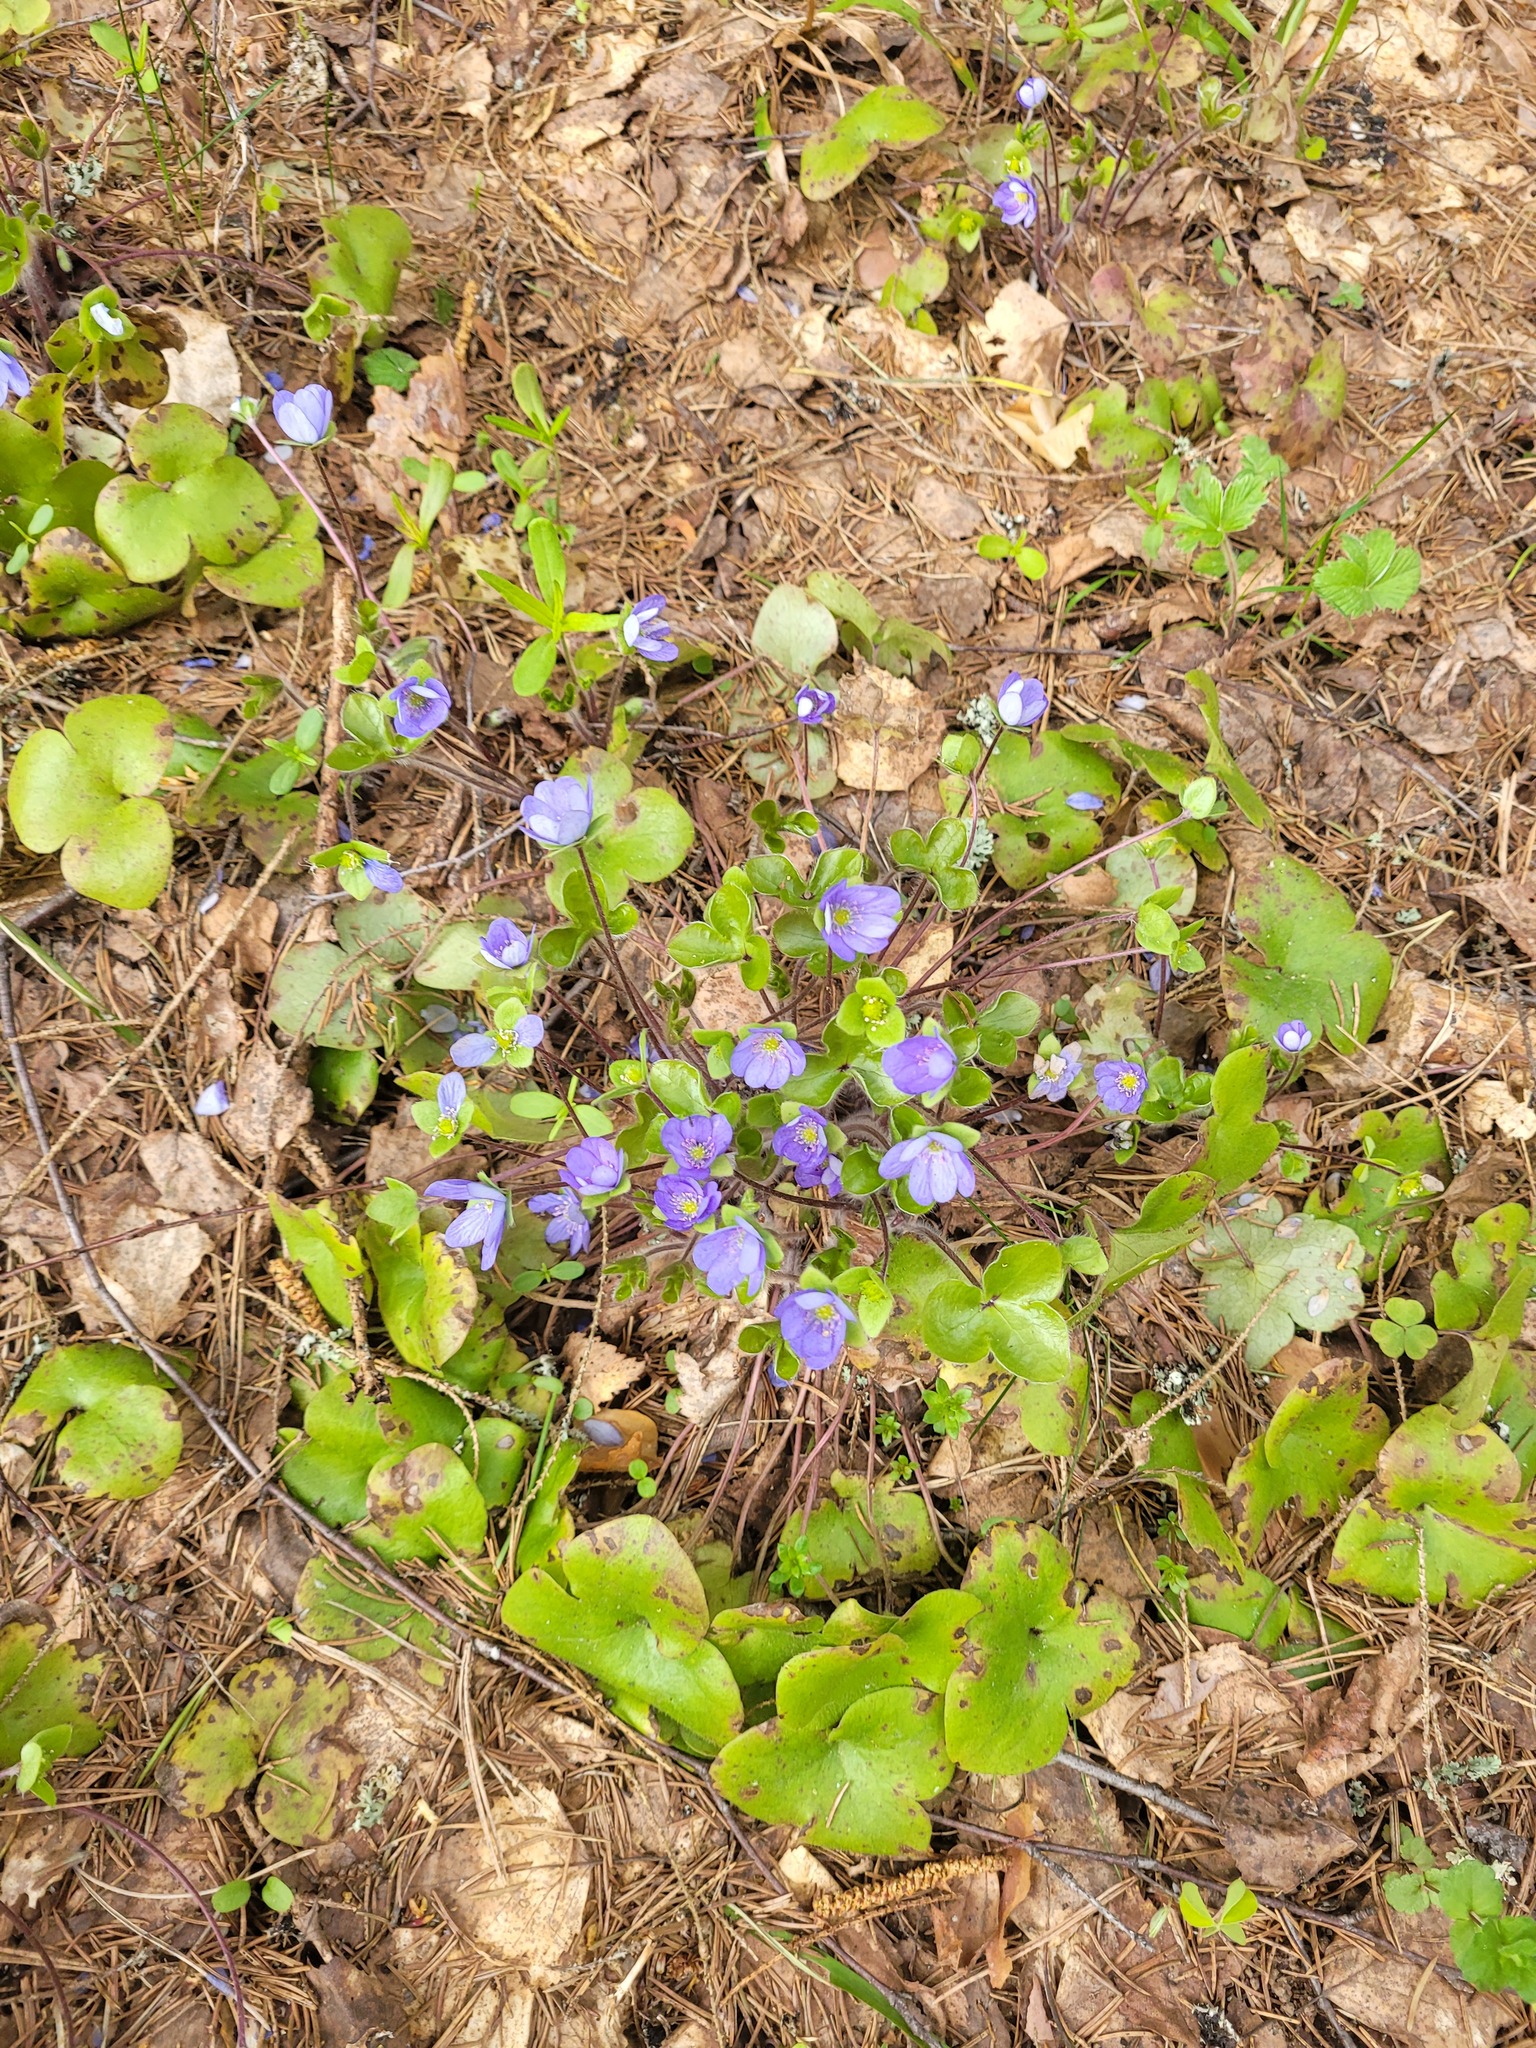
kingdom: Plantae
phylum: Tracheophyta
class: Magnoliopsida
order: Ranunculales
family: Ranunculaceae
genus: Hepatica
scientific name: Hepatica nobilis
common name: Liverleaf
